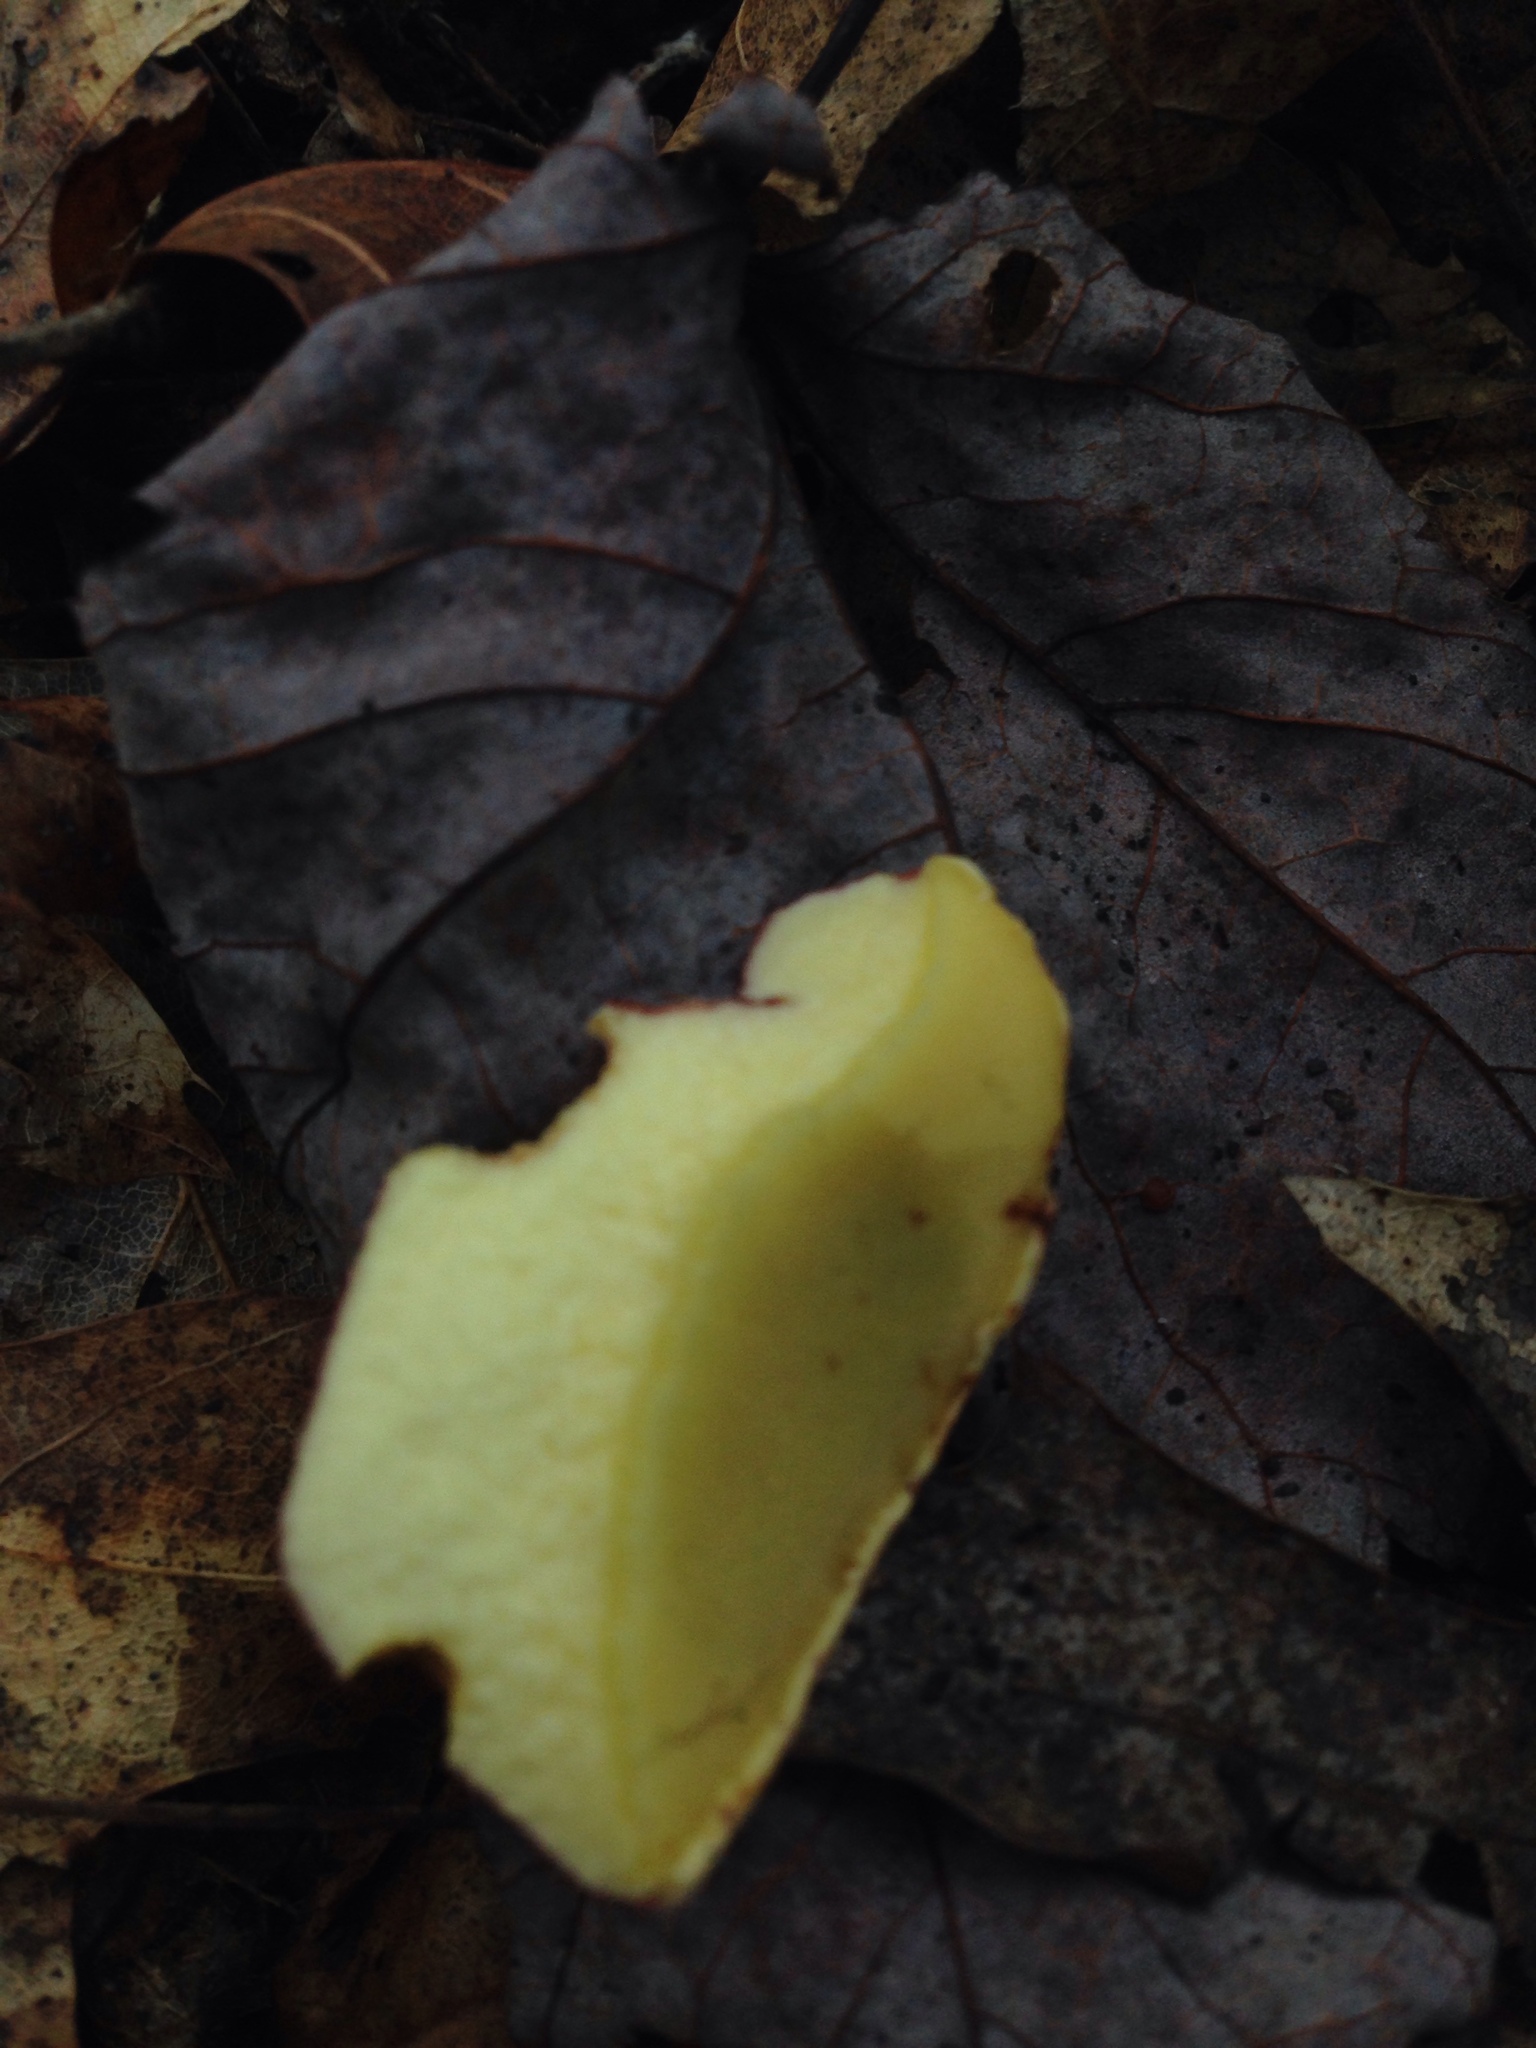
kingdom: Fungi
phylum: Basidiomycota
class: Agaricomycetes
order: Boletales
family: Boletaceae
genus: Baorangia
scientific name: Baorangia bicolor
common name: Two-colored bolete
